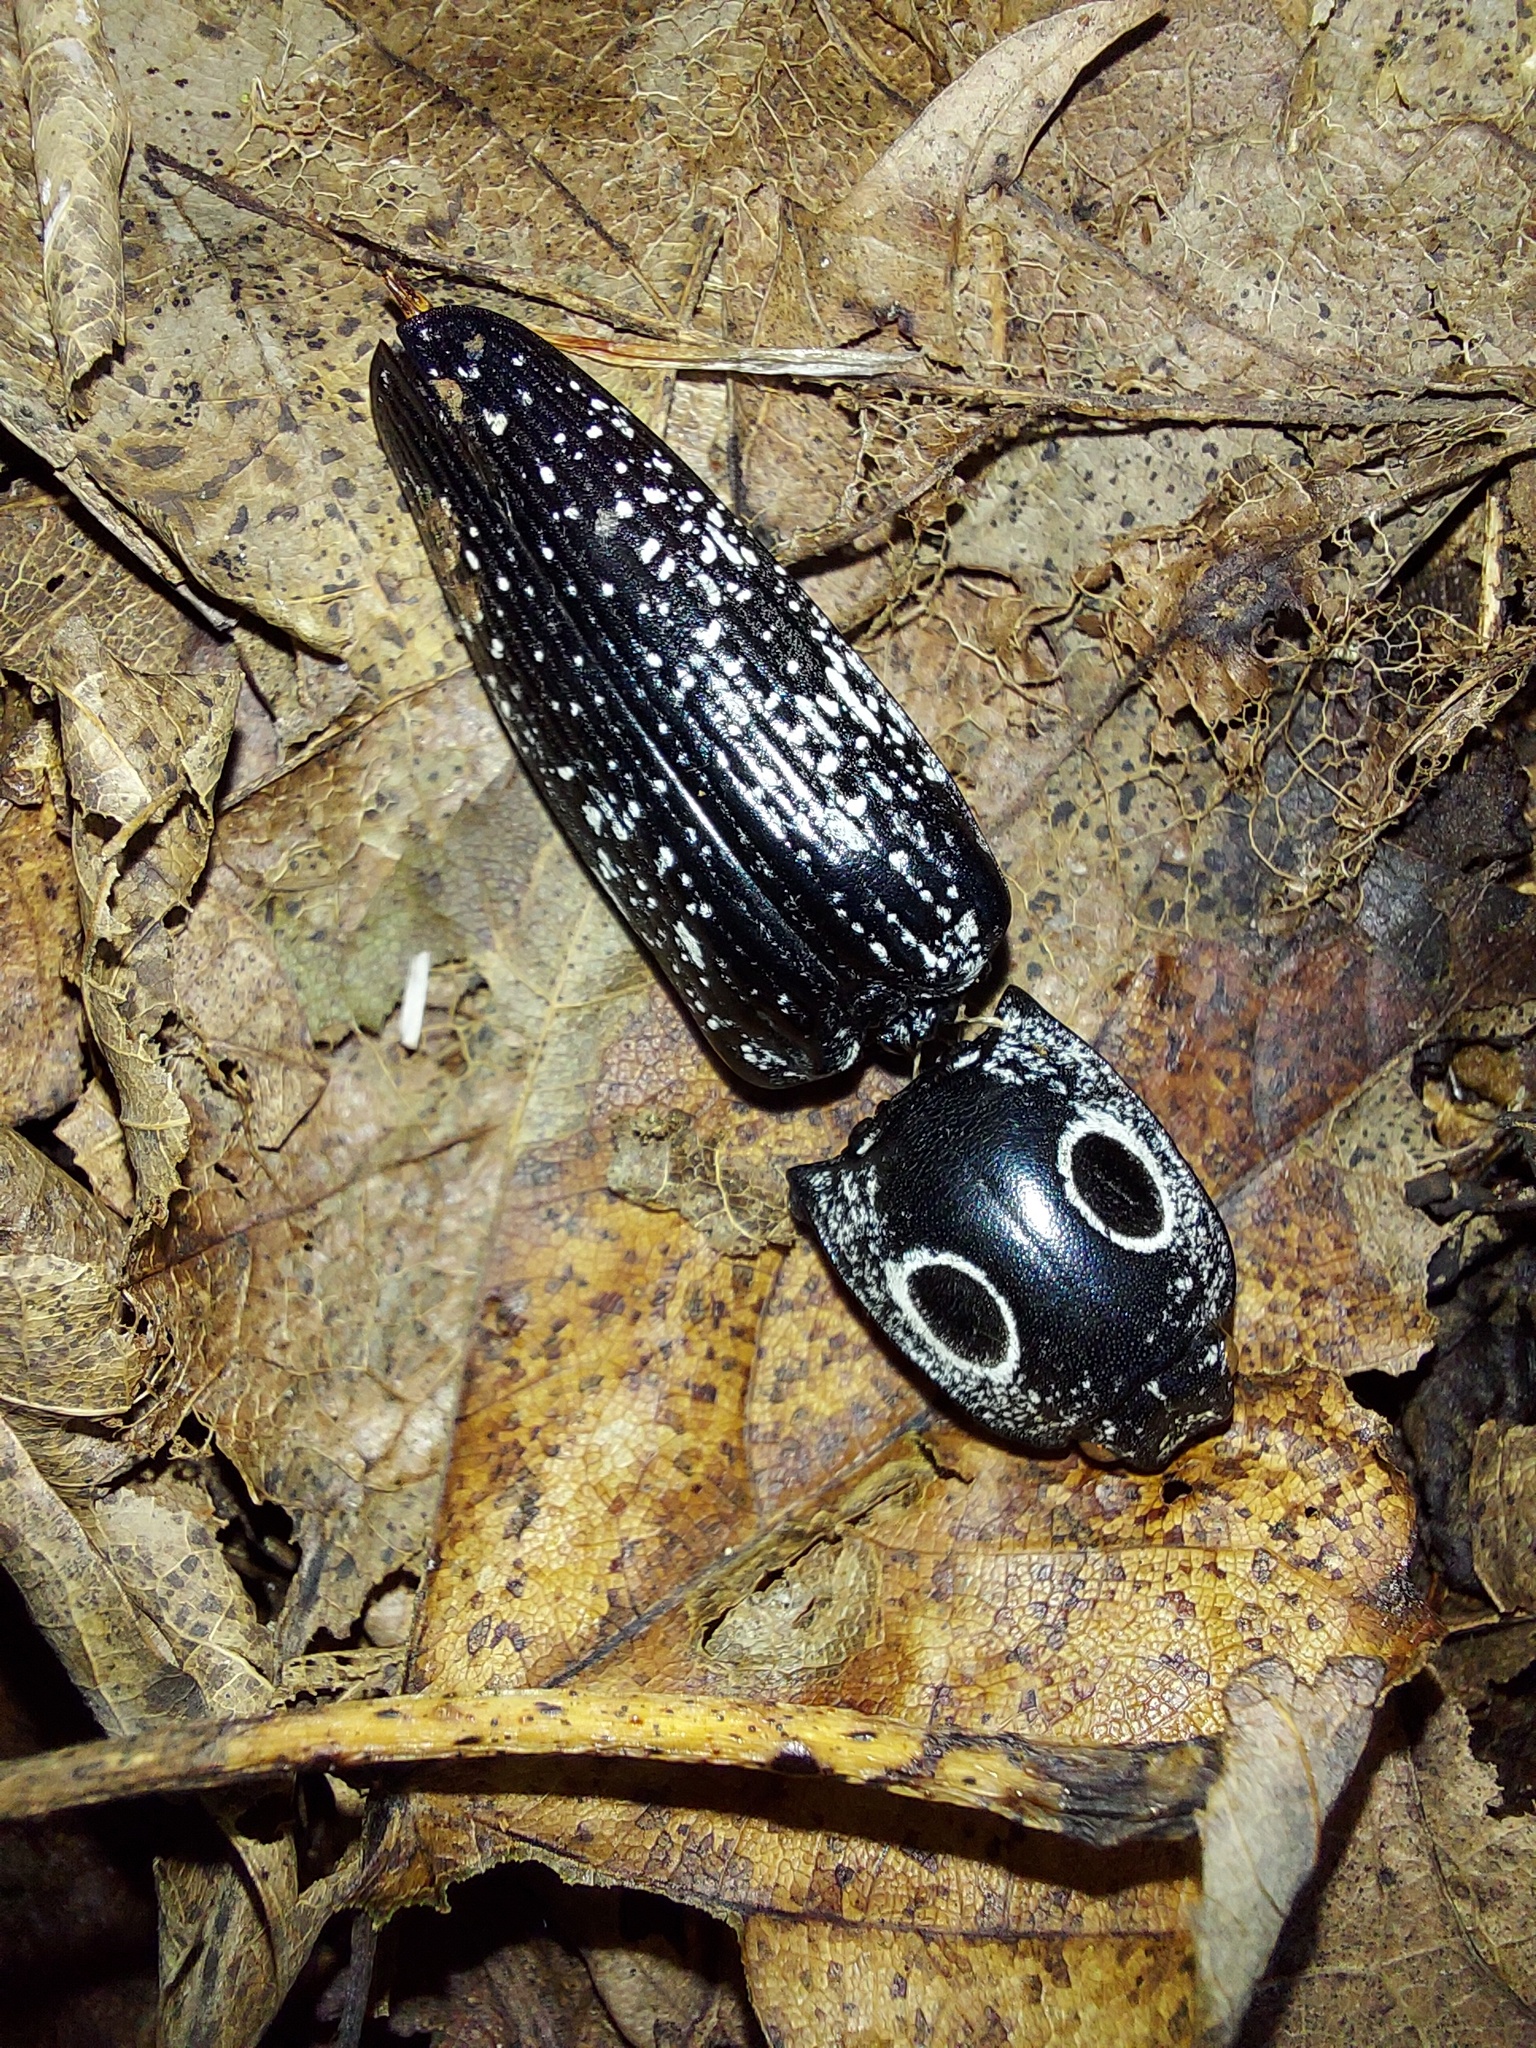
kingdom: Animalia
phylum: Arthropoda
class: Insecta
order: Coleoptera
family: Elateridae
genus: Alaus
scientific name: Alaus oculatus
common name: Eastern eyed click beetle
